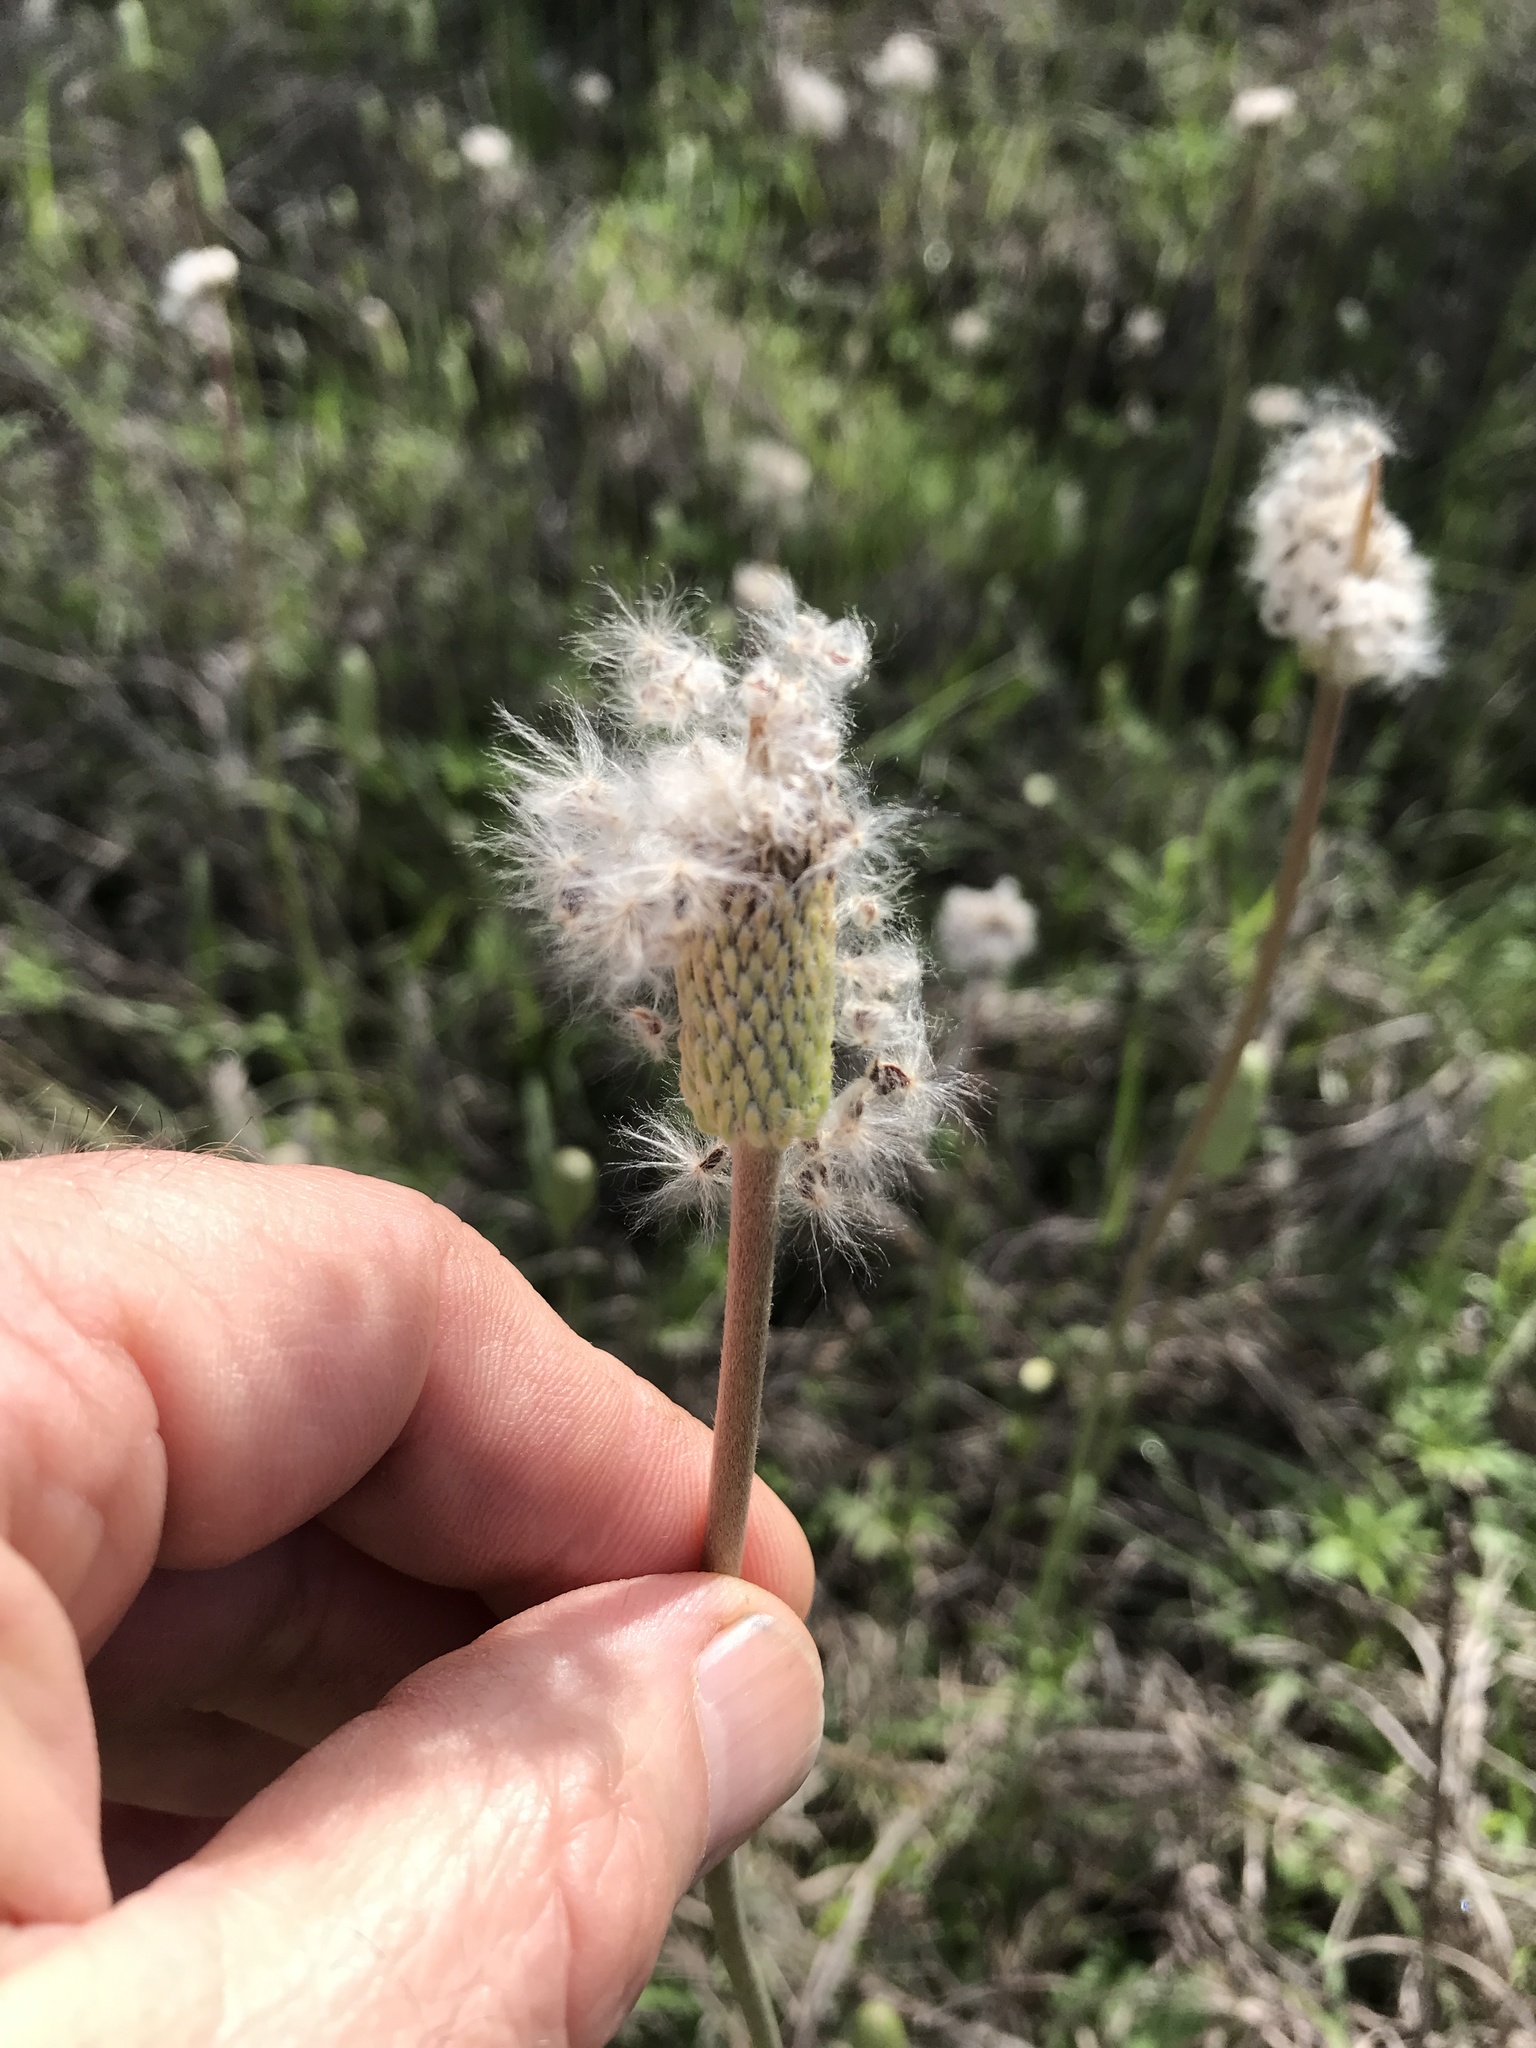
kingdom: Plantae
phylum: Tracheophyta
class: Magnoliopsida
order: Ranunculales
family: Ranunculaceae
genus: Anemone
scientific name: Anemone berlandieri
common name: Ten-petal anemone
